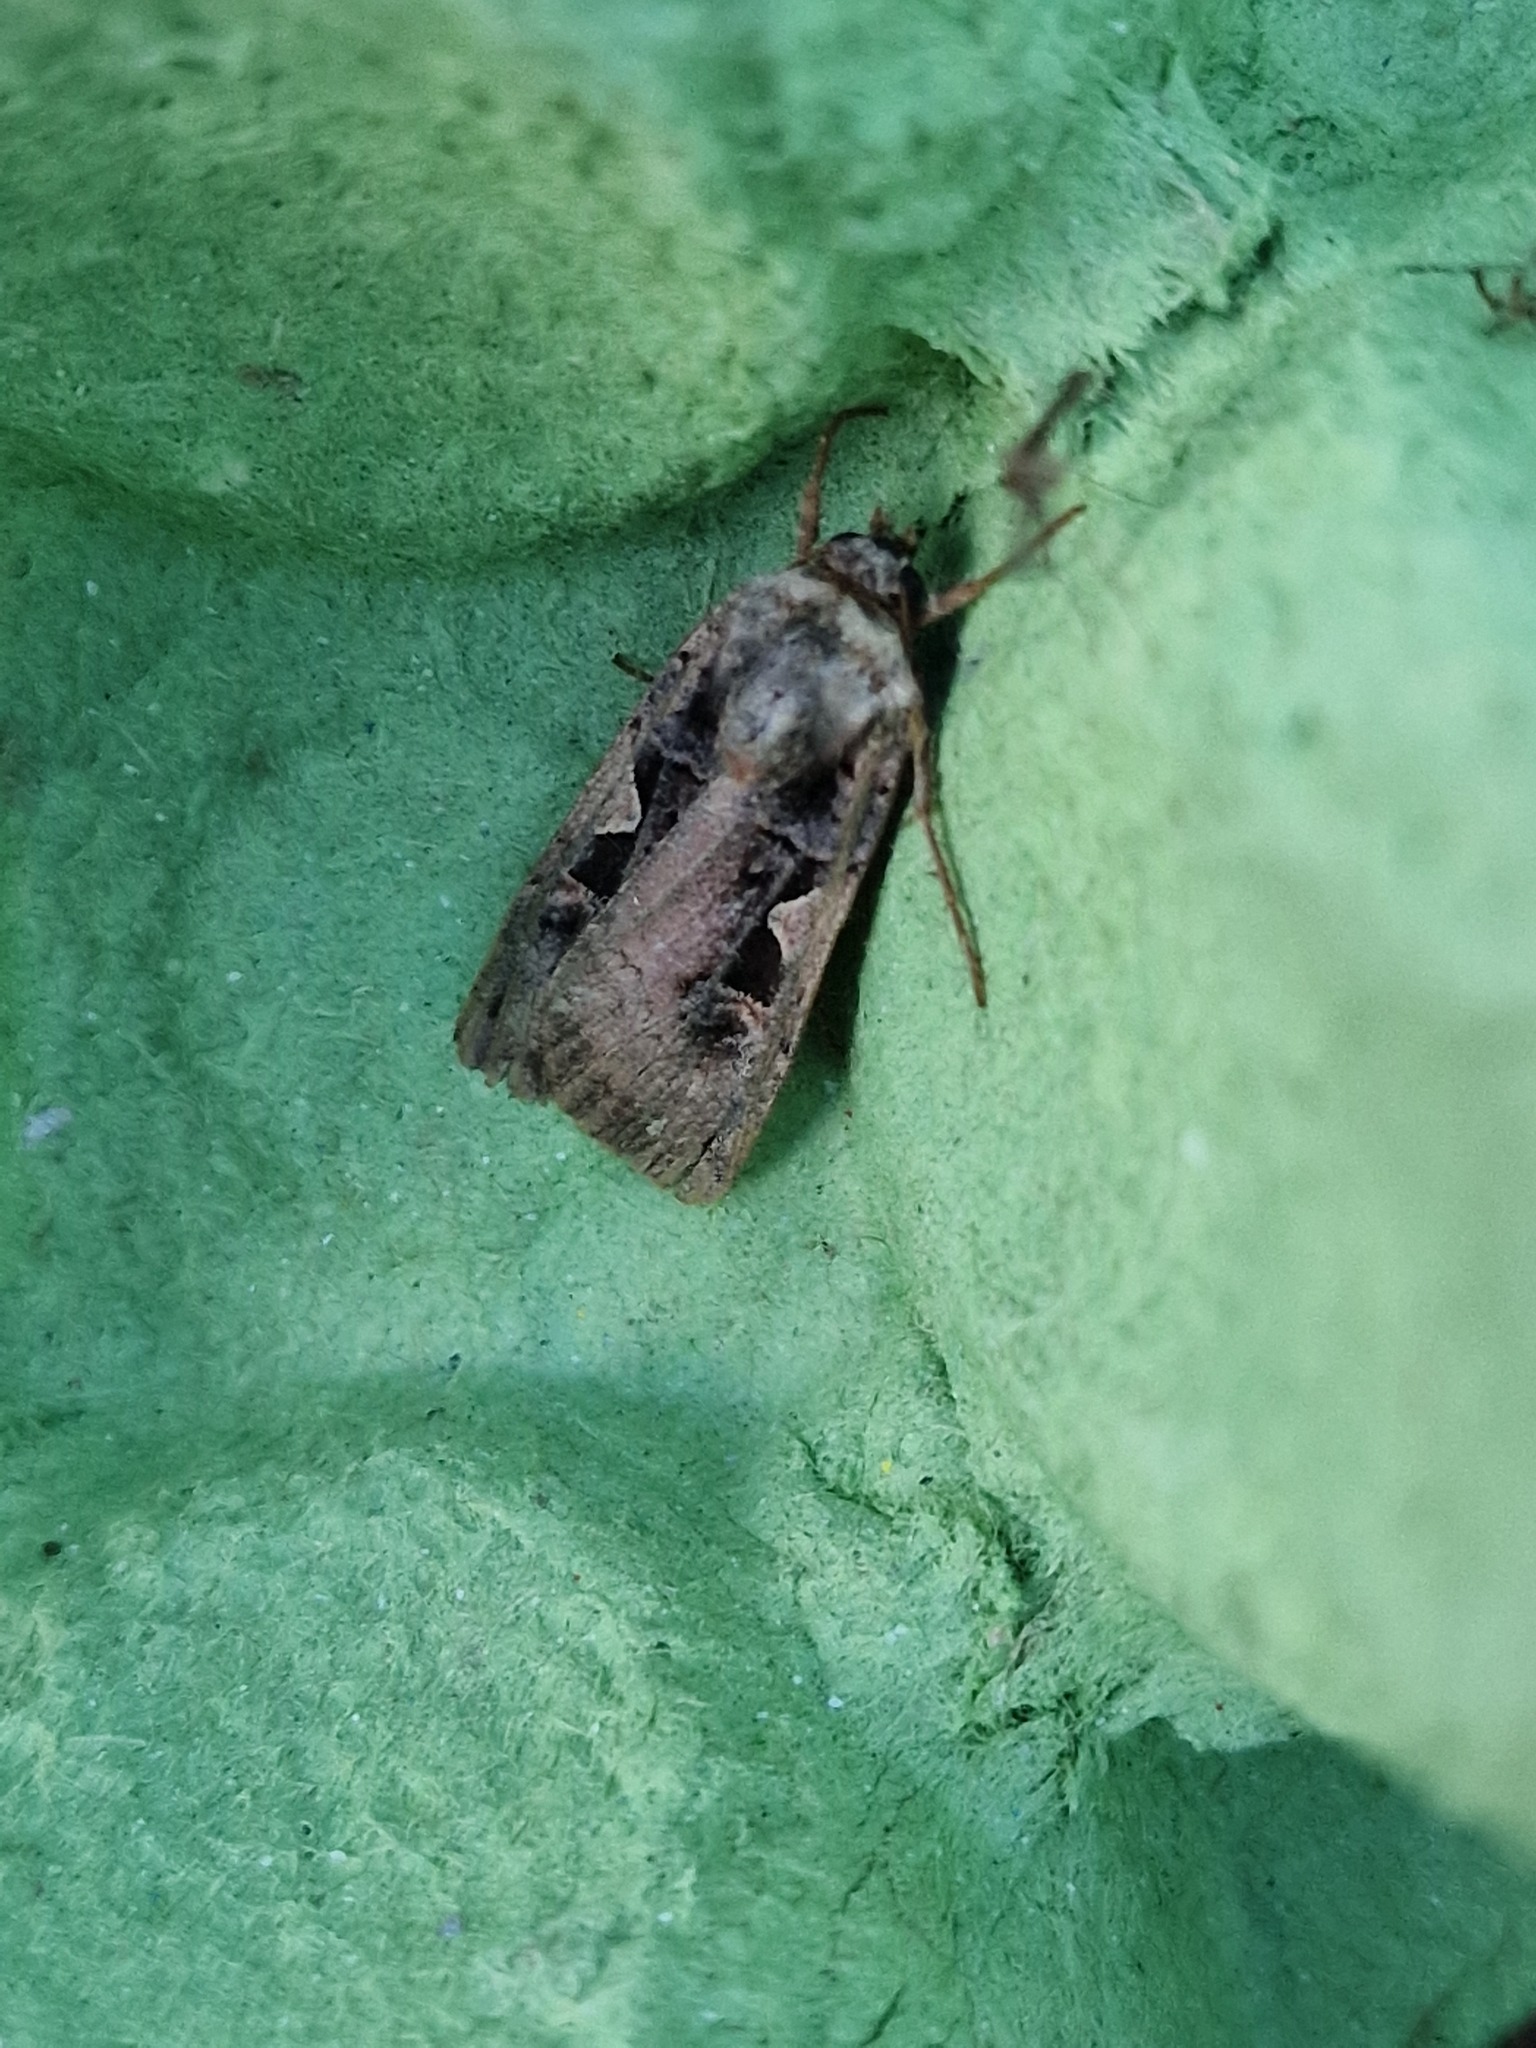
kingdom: Animalia
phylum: Arthropoda
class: Insecta
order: Lepidoptera
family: Noctuidae
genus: Xestia
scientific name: Xestia c-nigrum
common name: Setaceous hebrew character
